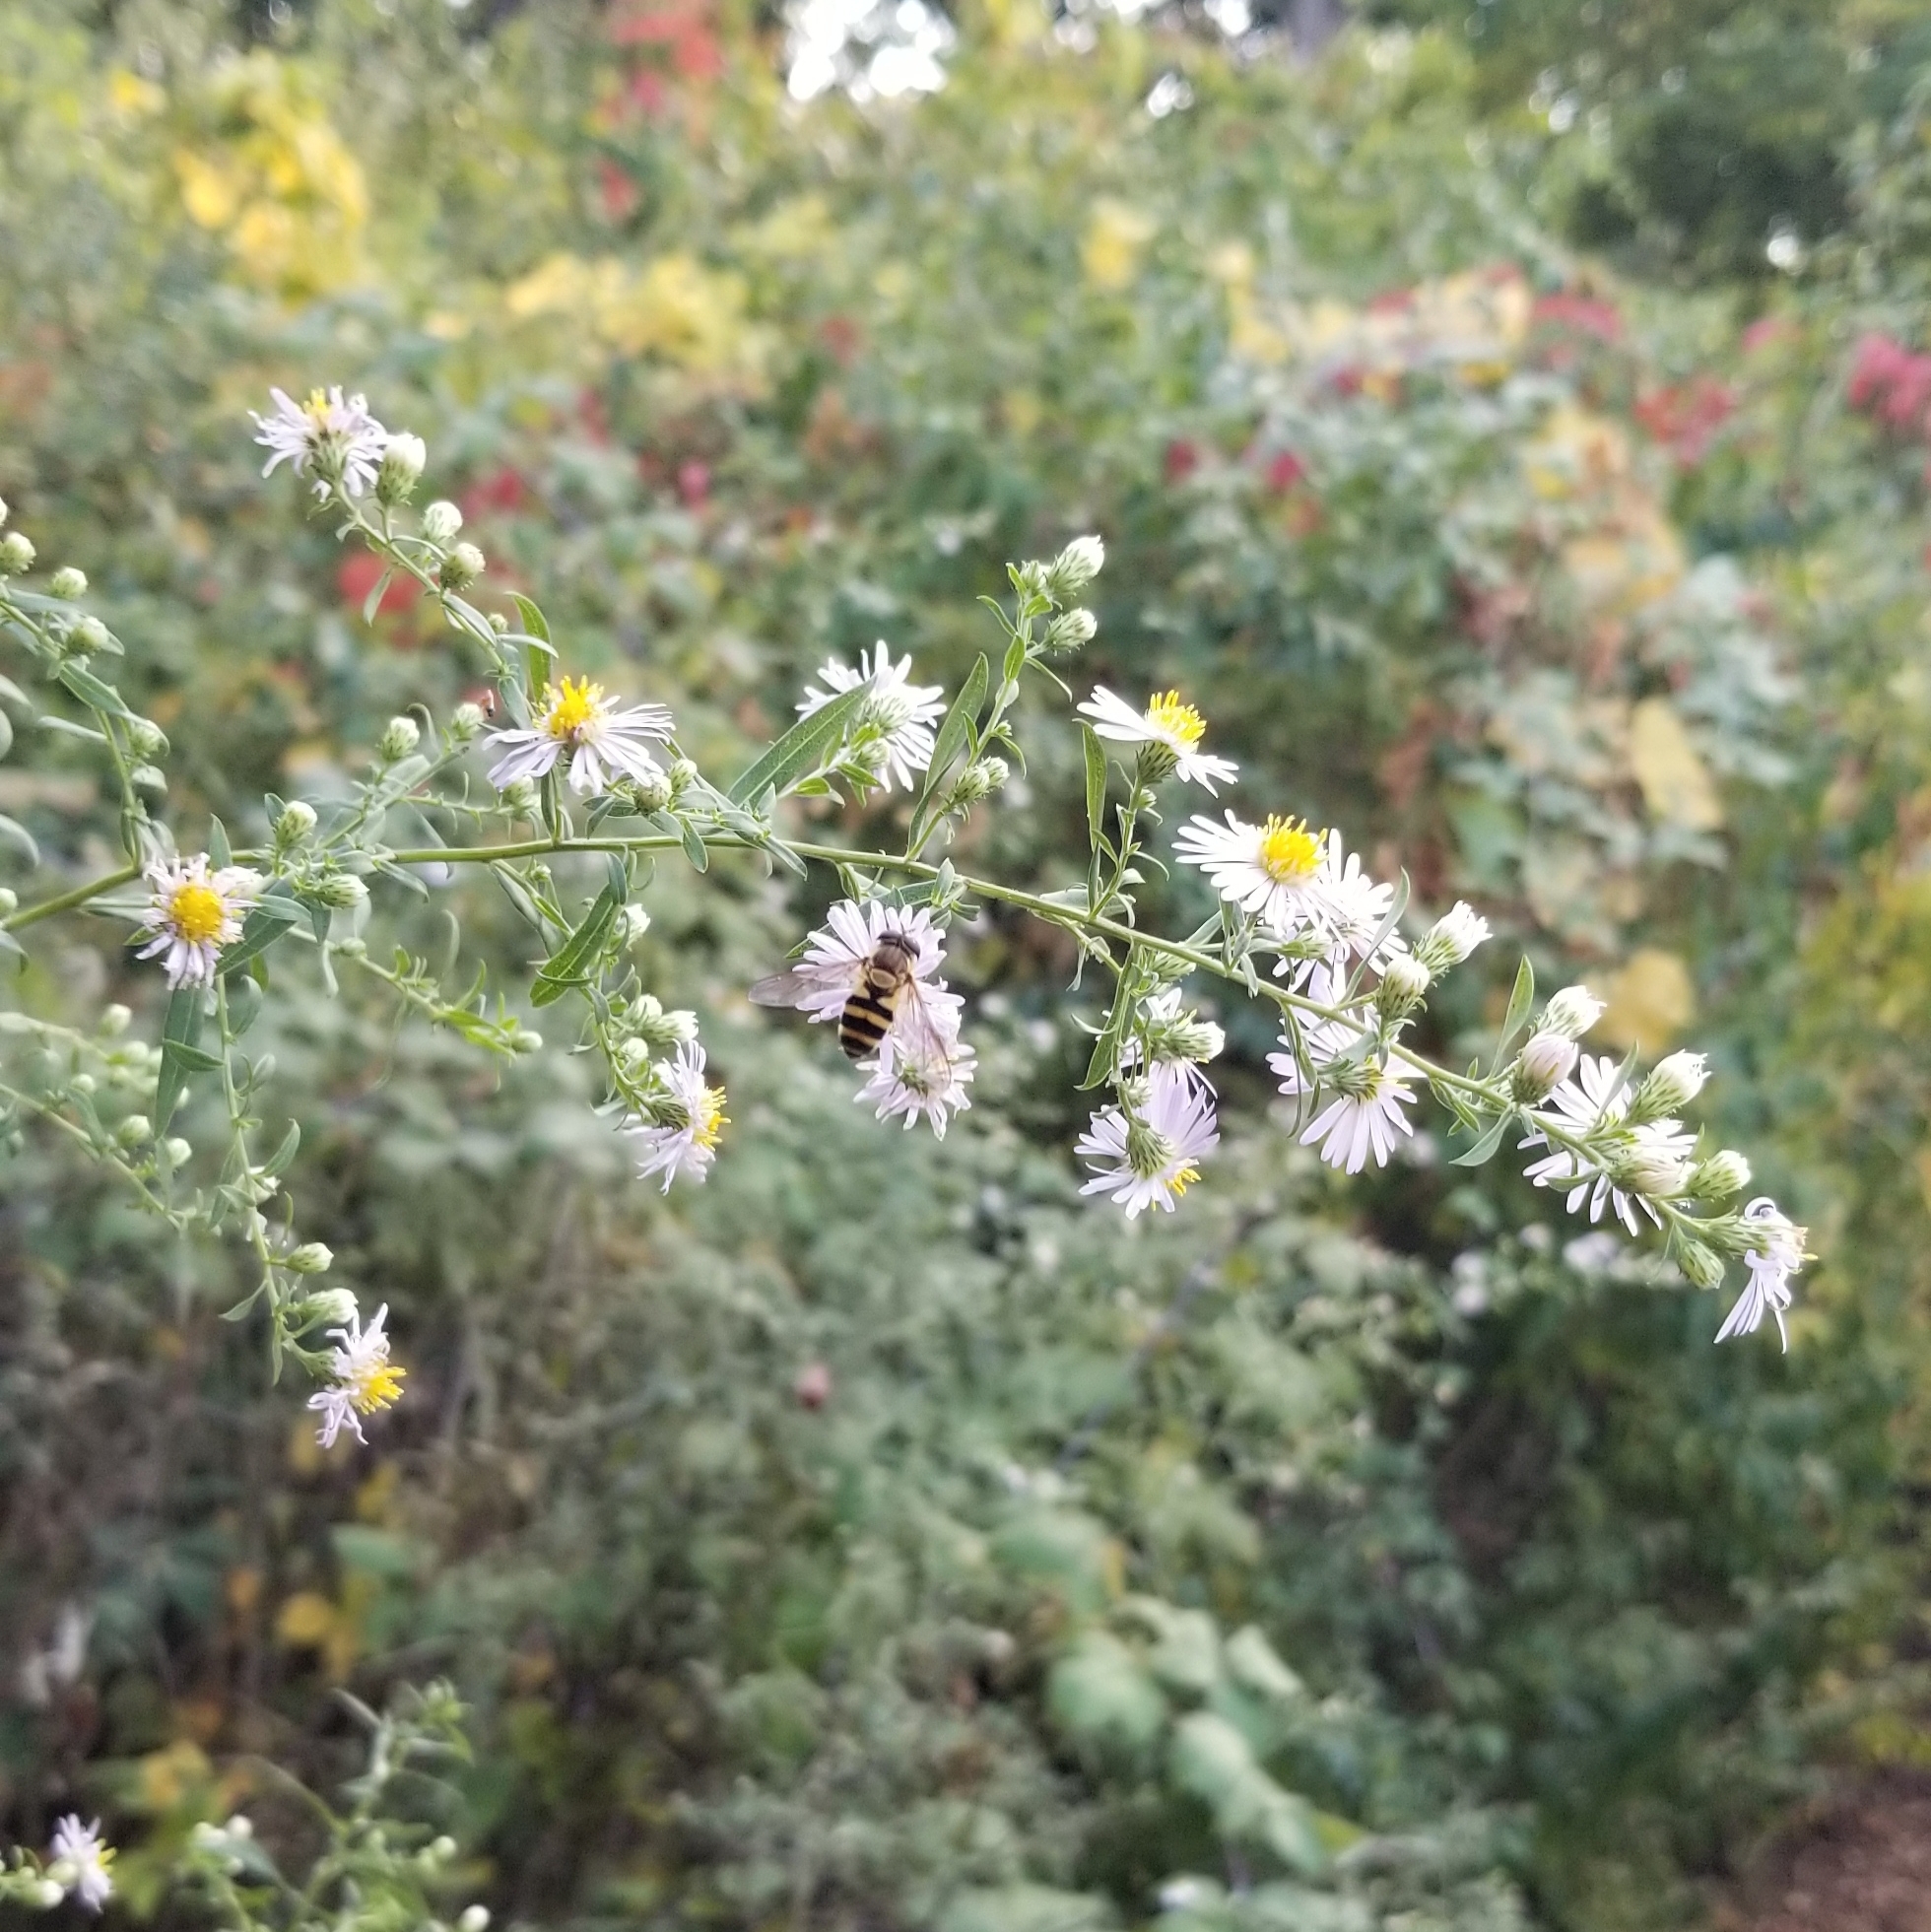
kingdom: Animalia
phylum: Arthropoda
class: Insecta
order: Diptera
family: Syrphidae
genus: Epistrophe
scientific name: Epistrophe grossulariae
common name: Black-horned smoothtail
